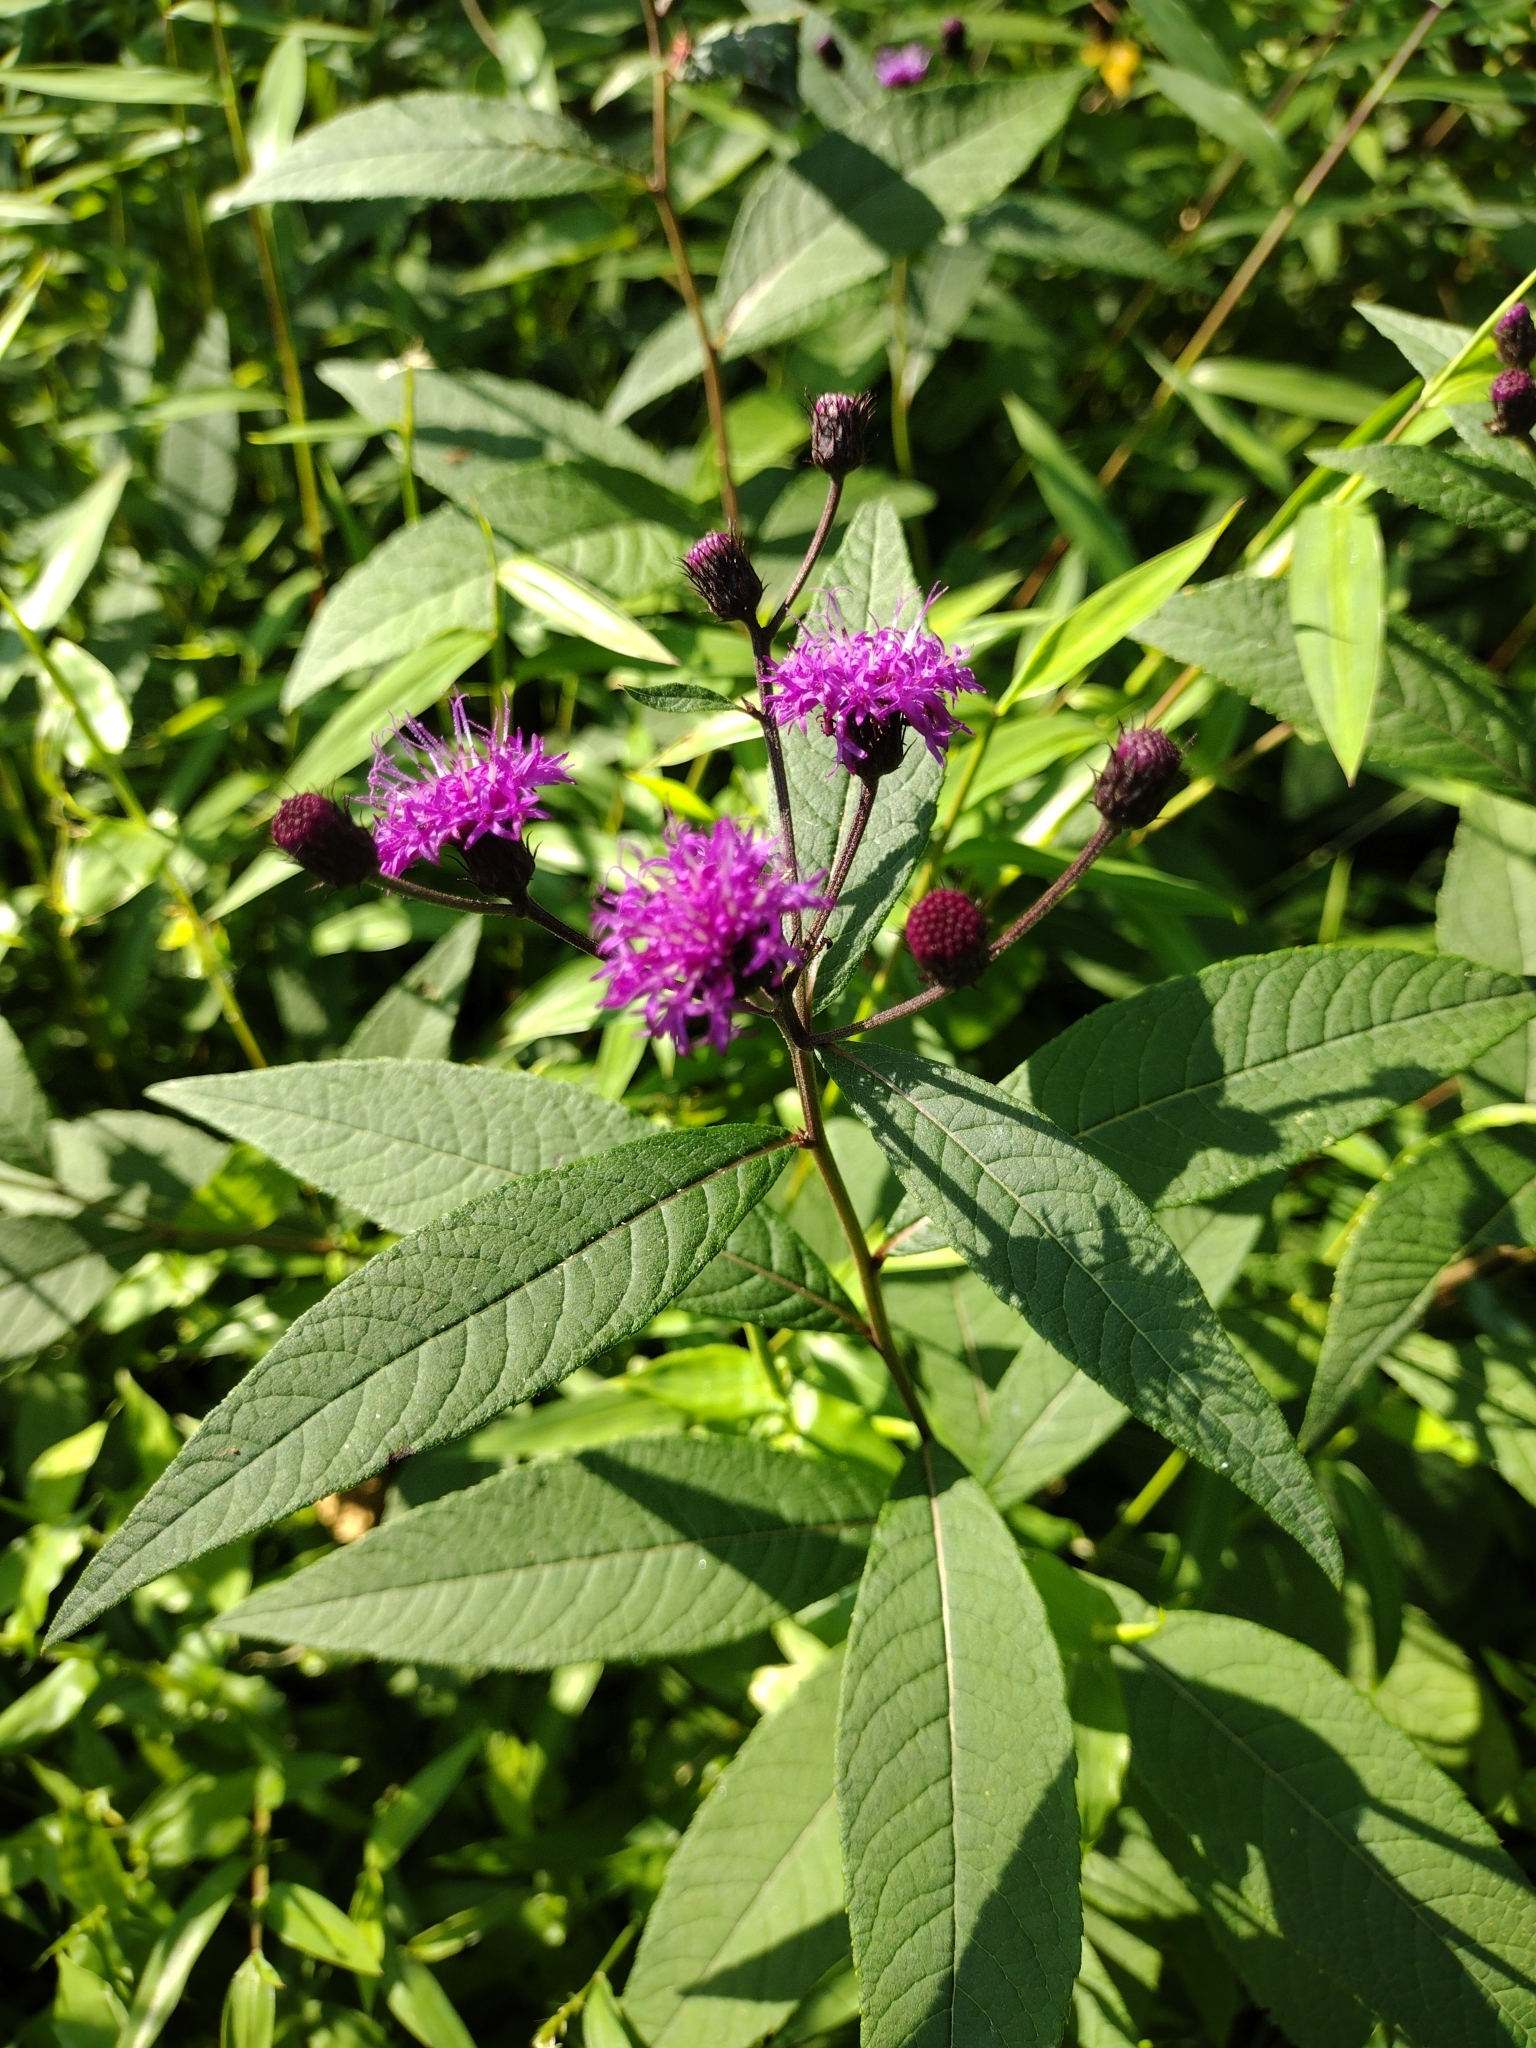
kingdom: Plantae
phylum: Tracheophyta
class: Magnoliopsida
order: Asterales
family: Asteraceae
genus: Vernonia
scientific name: Vernonia noveboracensis
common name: New york ironweed
